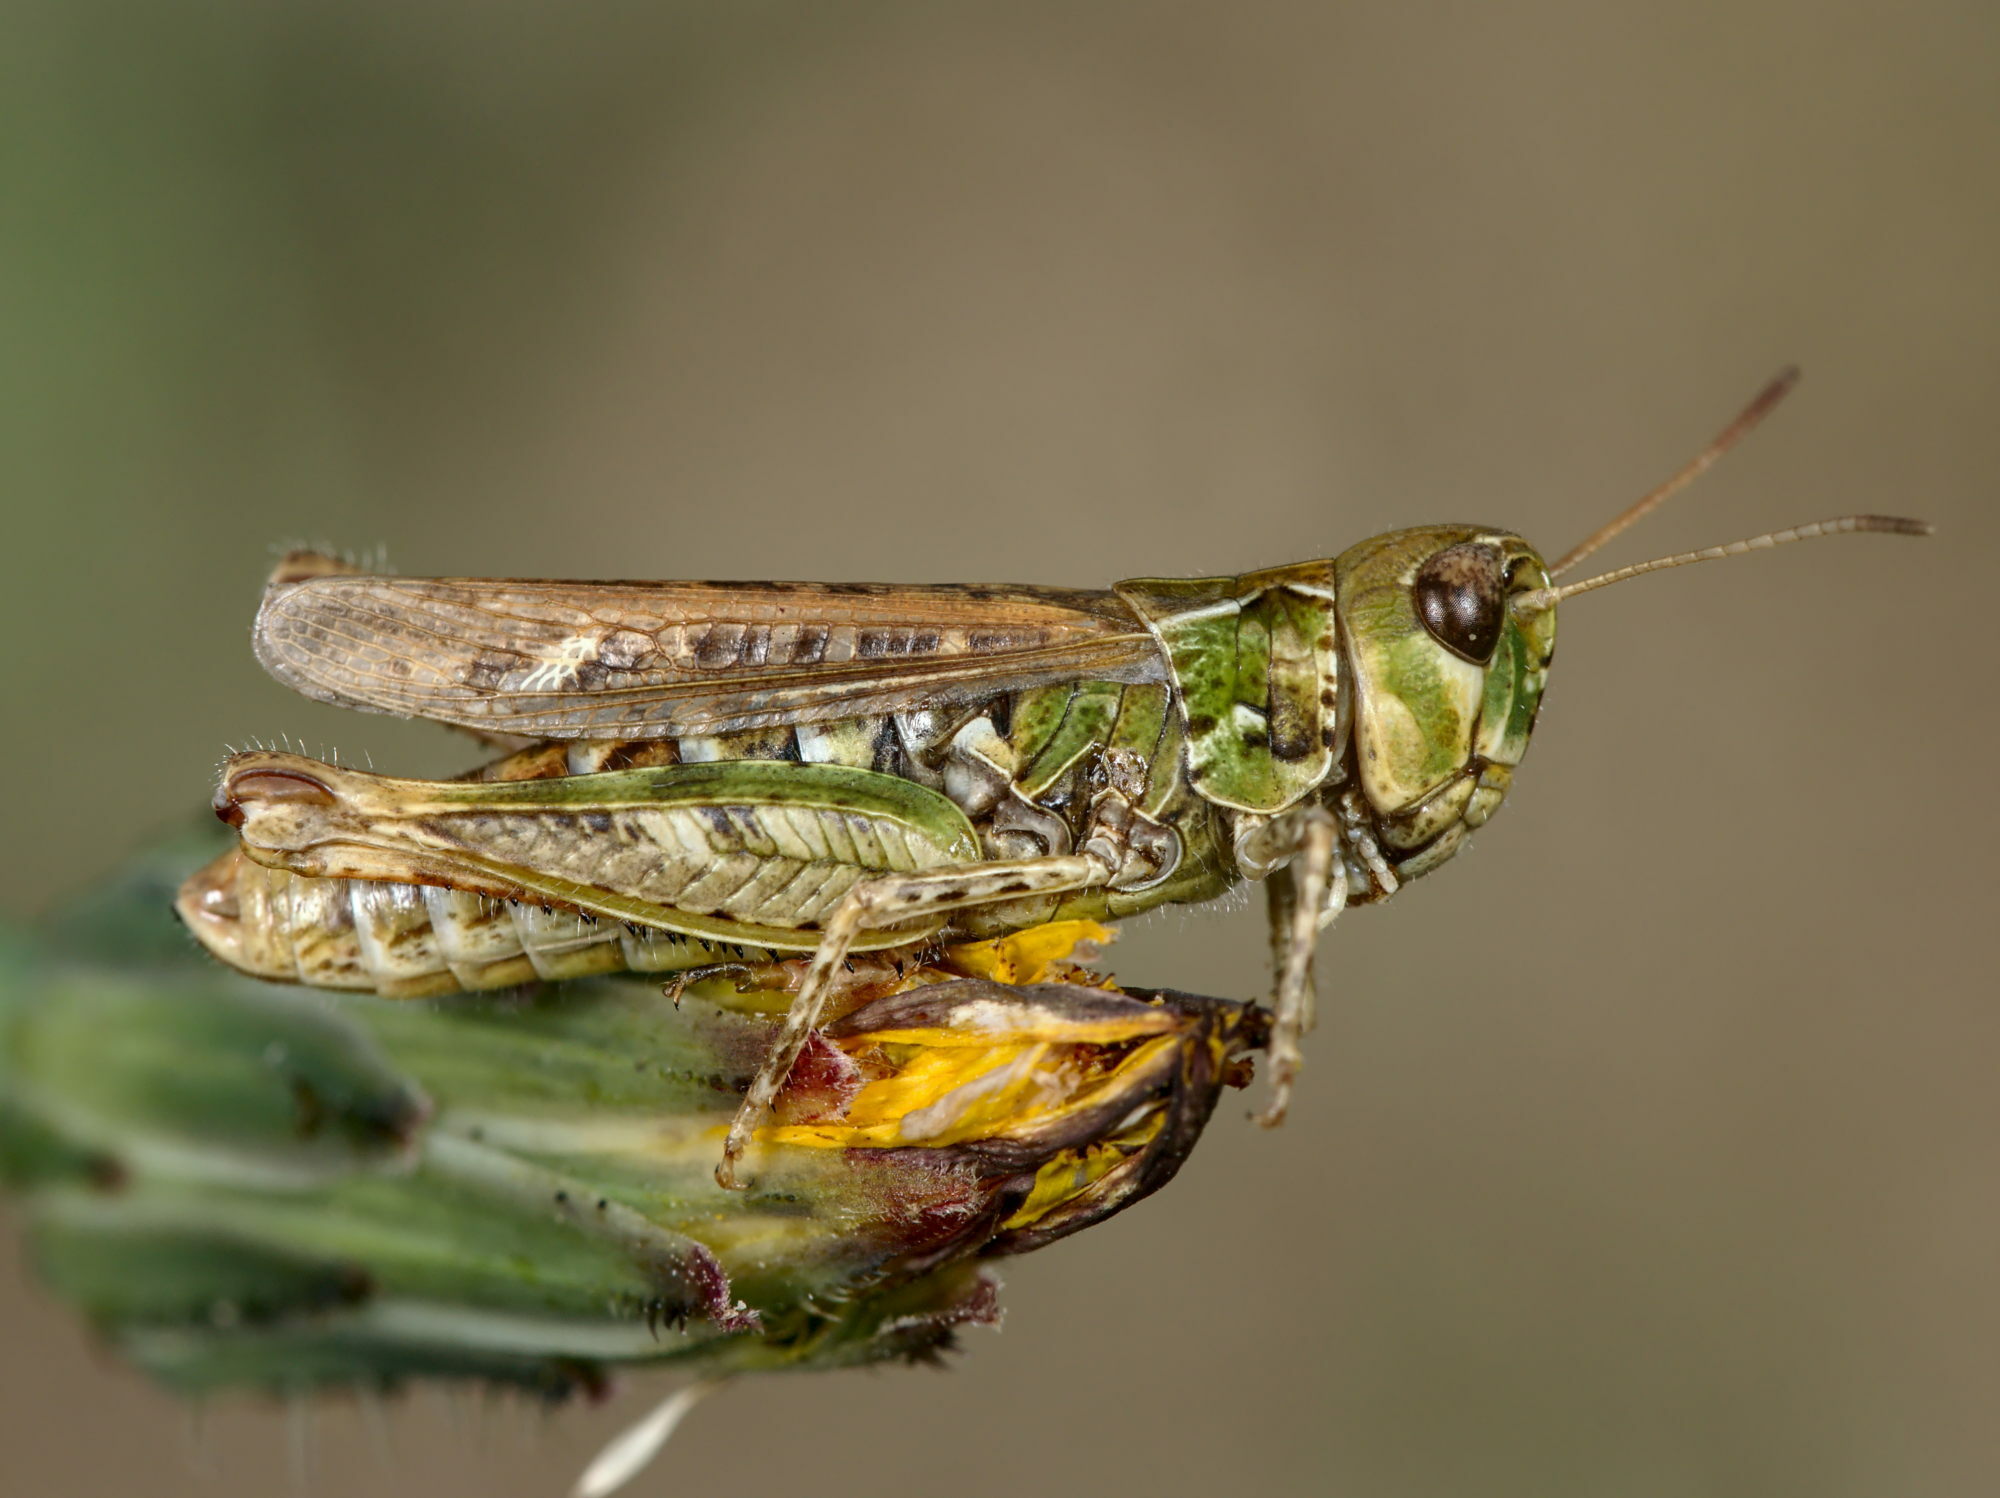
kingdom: Animalia
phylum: Arthropoda
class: Insecta
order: Orthoptera
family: Acrididae
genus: Myrmeleotettix
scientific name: Myrmeleotettix maculatus
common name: Mottled grasshopper
